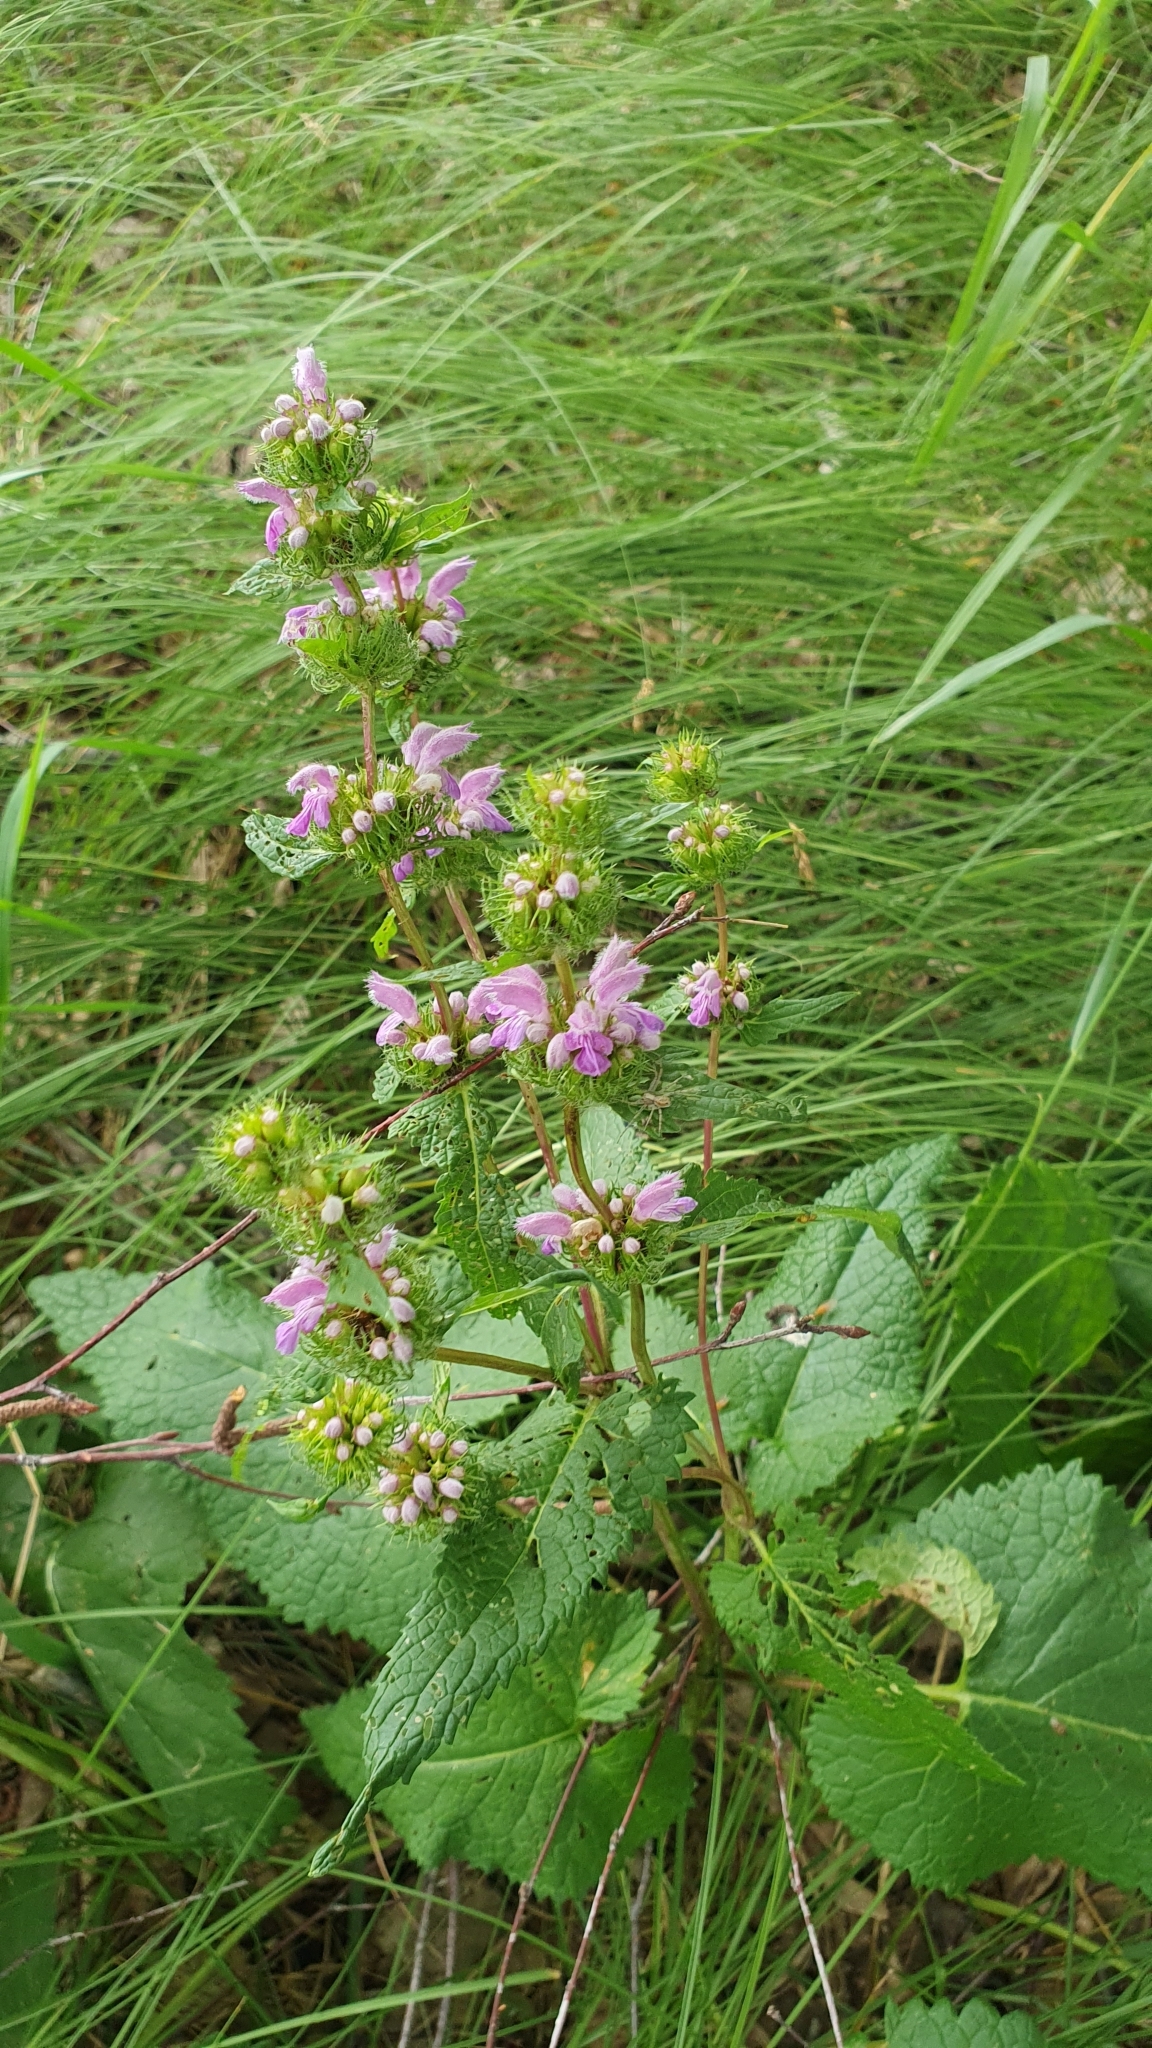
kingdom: Plantae
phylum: Tracheophyta
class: Magnoliopsida
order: Lamiales
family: Lamiaceae
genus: Phlomoides
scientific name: Phlomoides tuberosa
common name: Tuberous jerusalem sage
